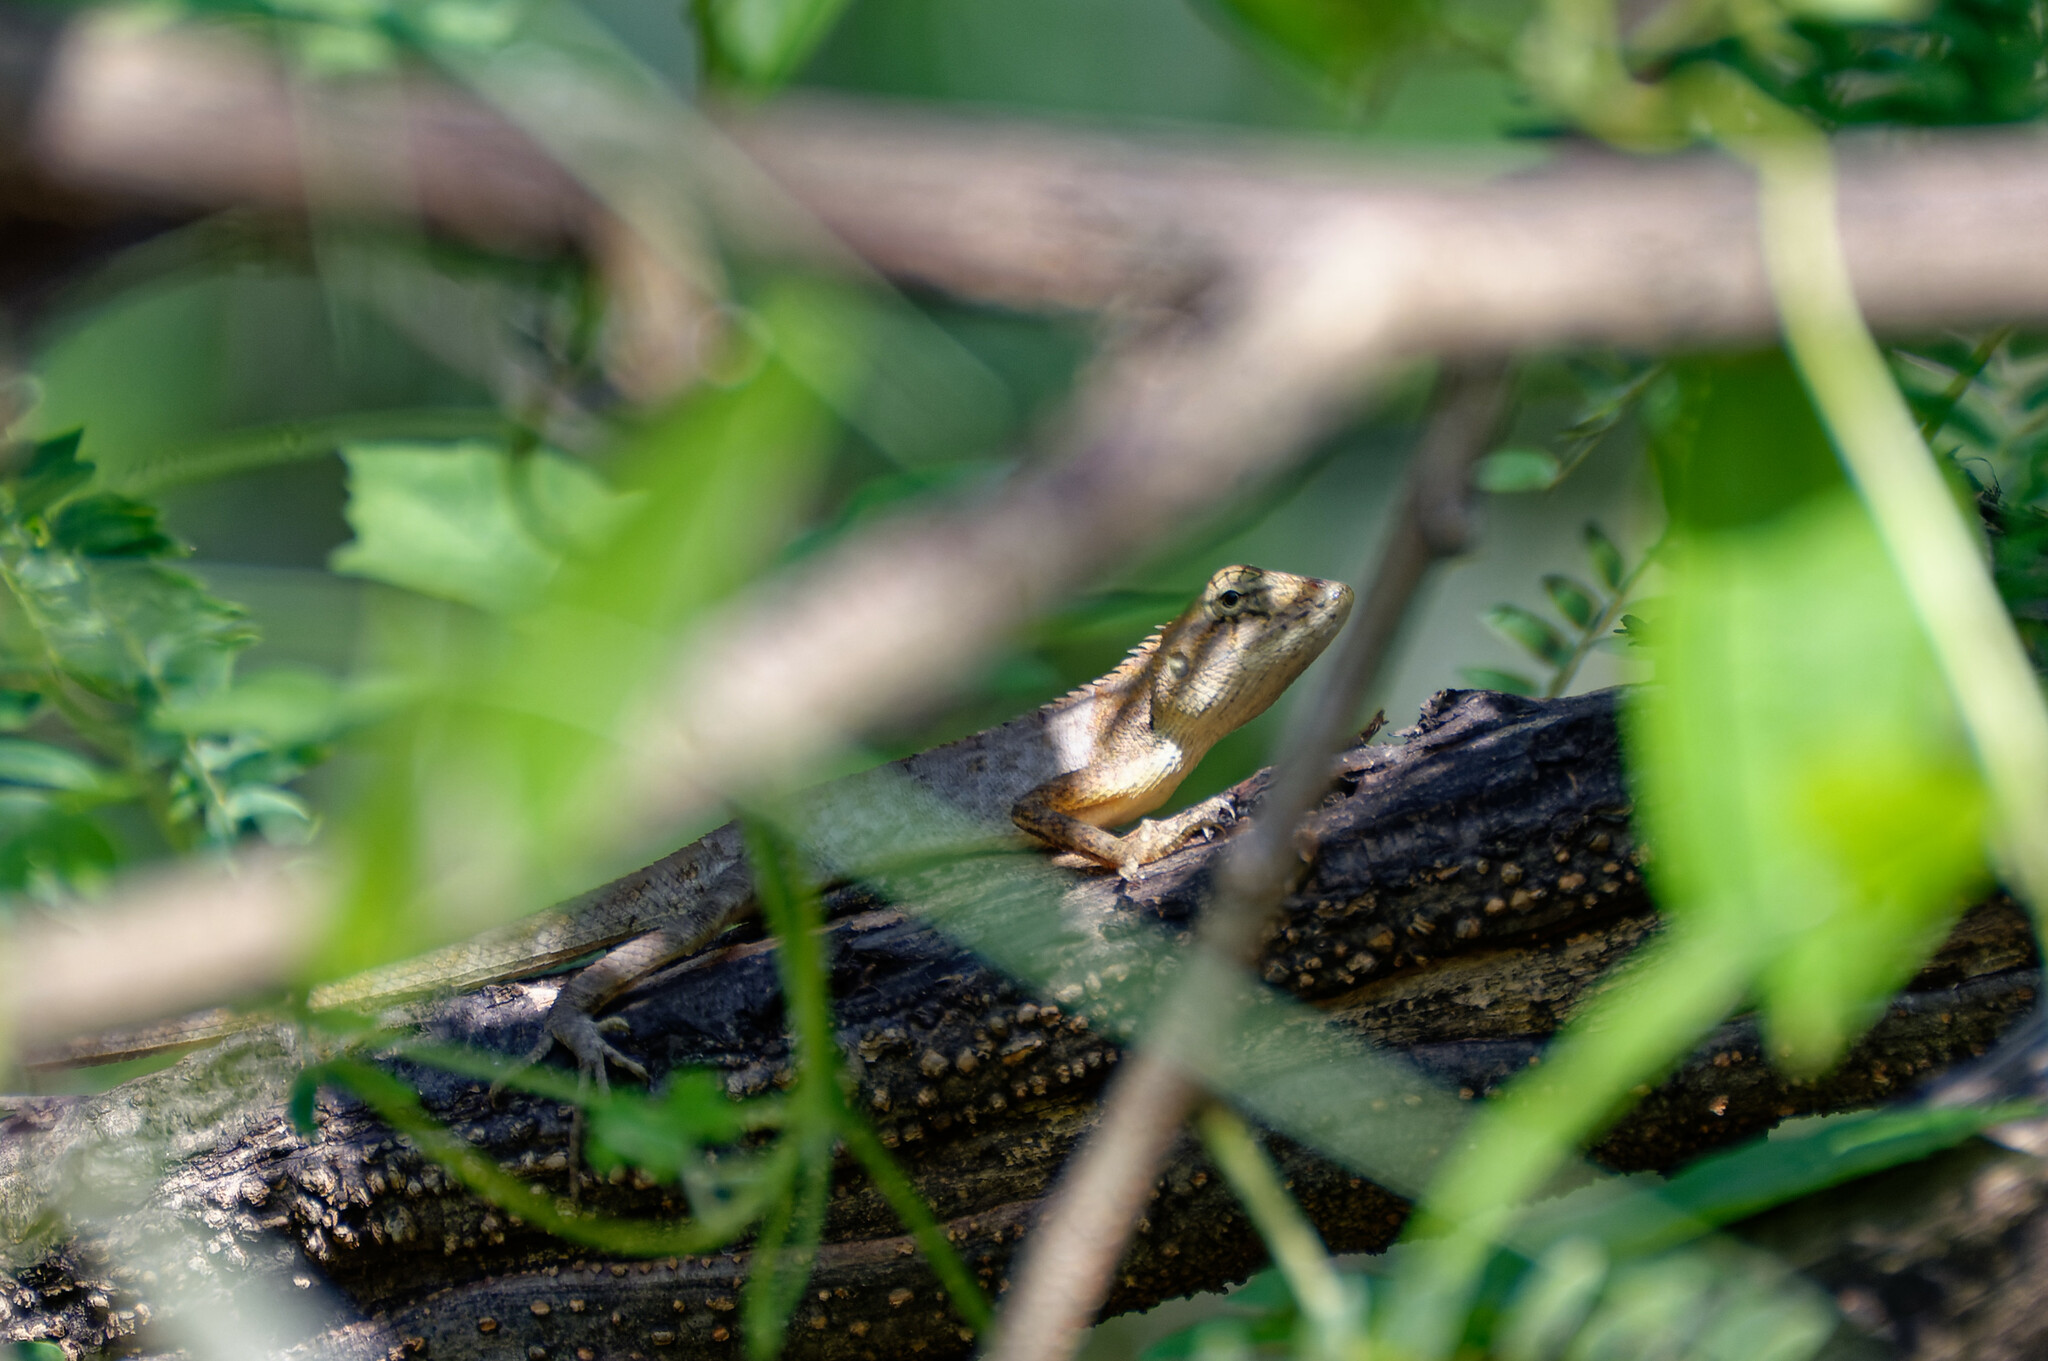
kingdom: Animalia
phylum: Chordata
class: Squamata
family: Agamidae
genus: Calotes
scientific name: Calotes versicolor
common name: Oriental garden lizard
